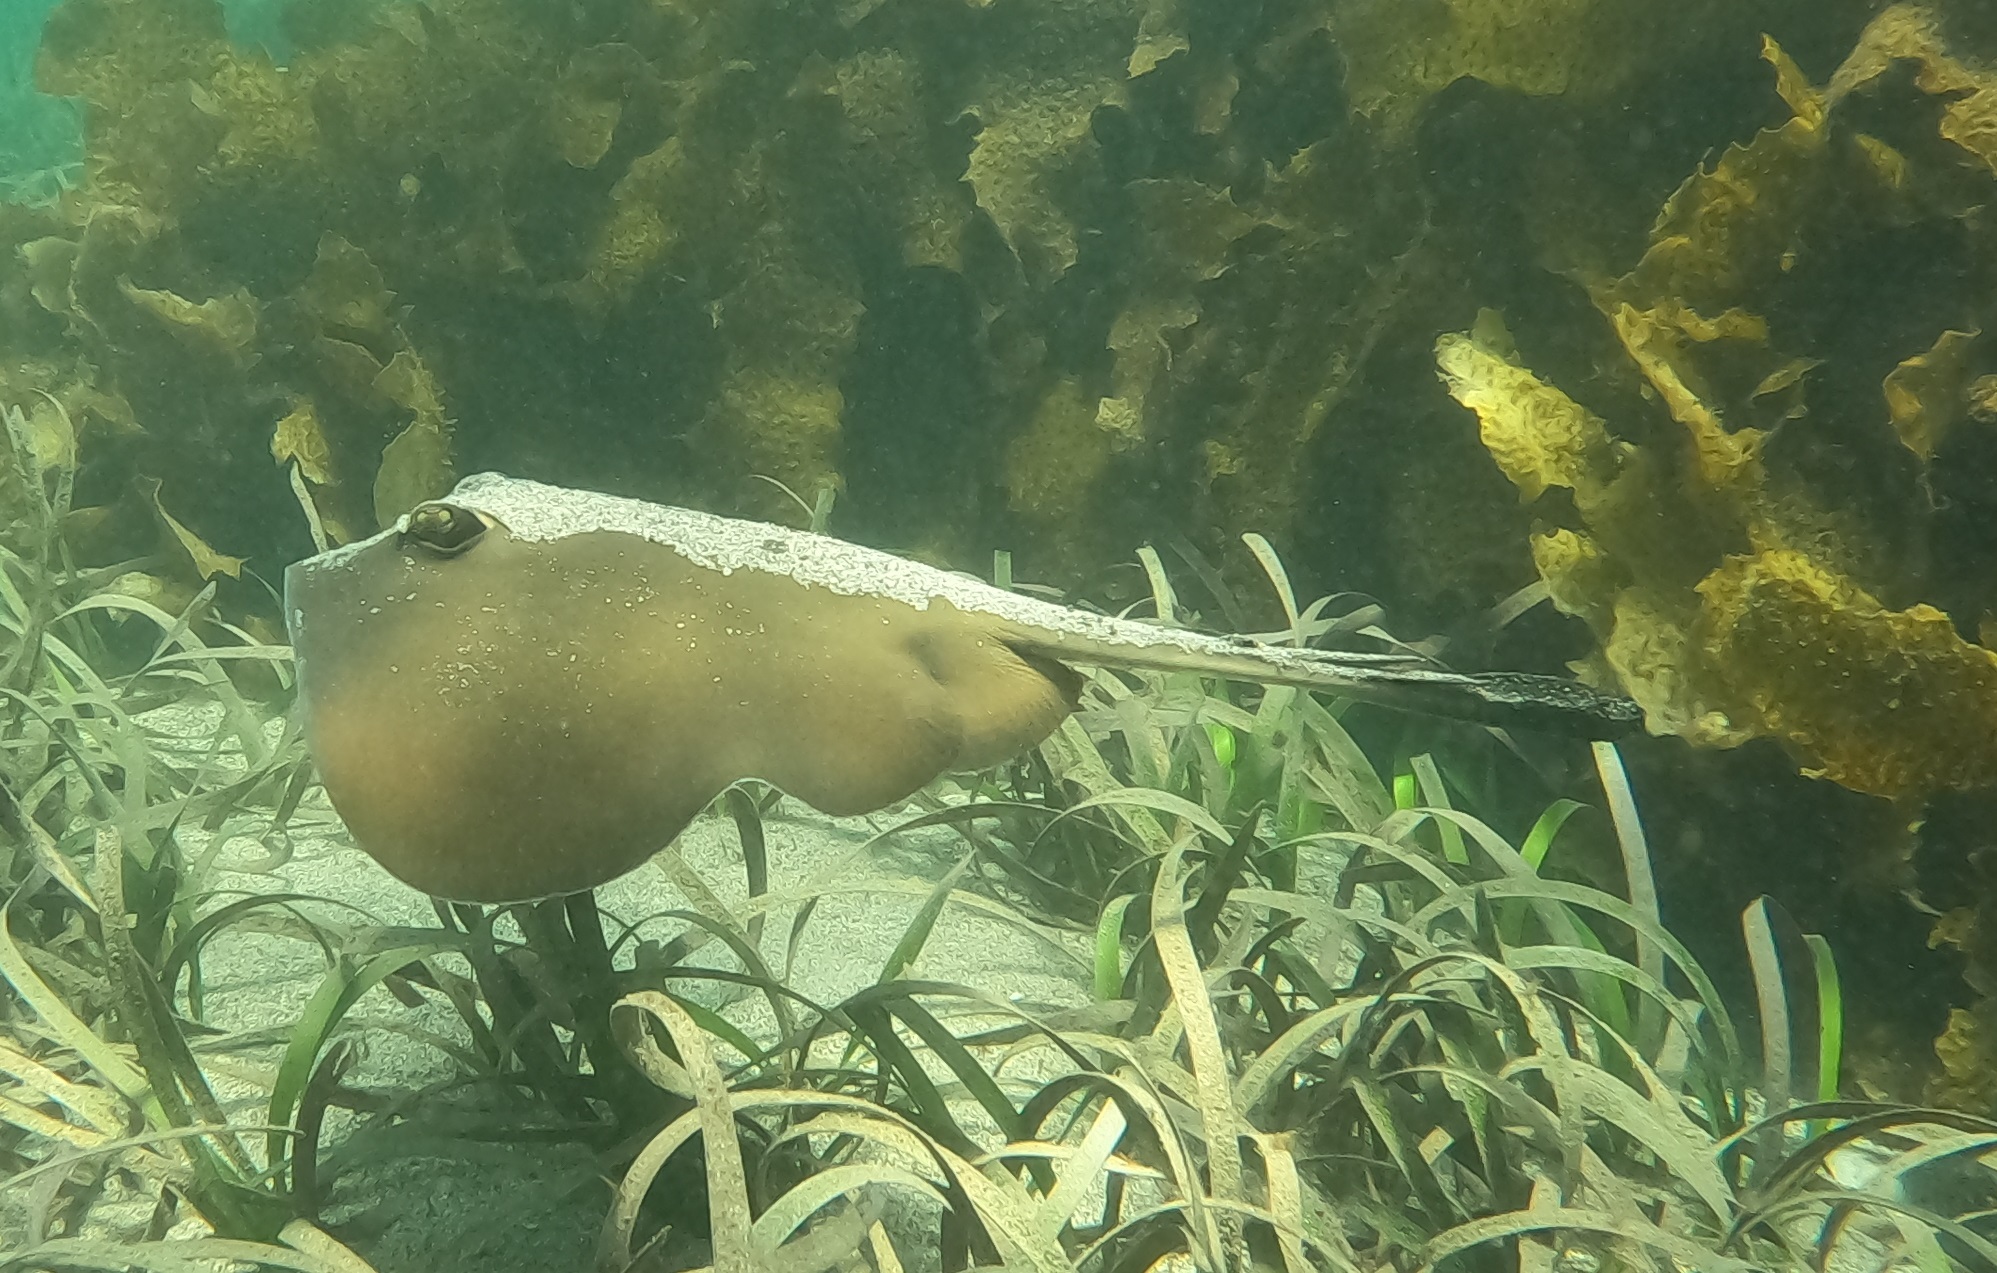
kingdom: Animalia
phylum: Chordata
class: Elasmobranchii
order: Myliobatiformes
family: Urolophidae
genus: Trygonoptera
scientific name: Trygonoptera testacea
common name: Common stingaree
